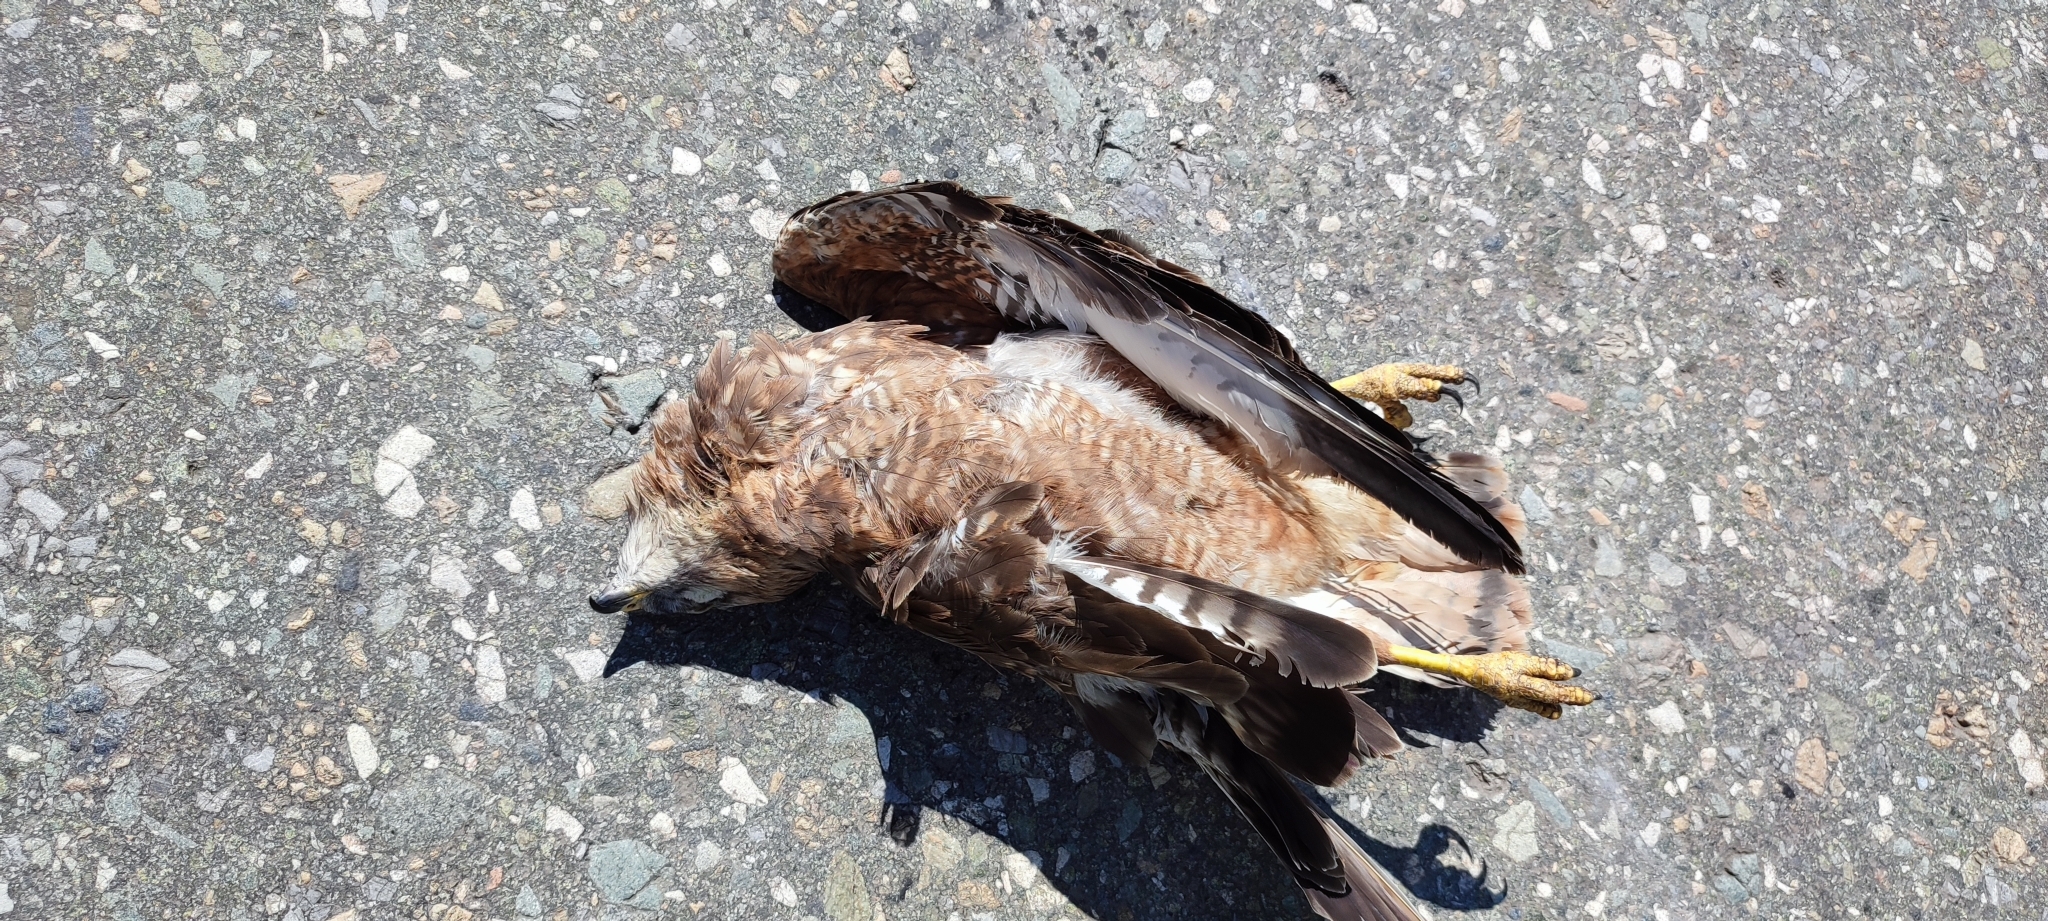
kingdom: Animalia
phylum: Chordata
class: Aves
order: Accipitriformes
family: Accipitridae
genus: Buteo
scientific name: Buteo buteo
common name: Common buzzard
